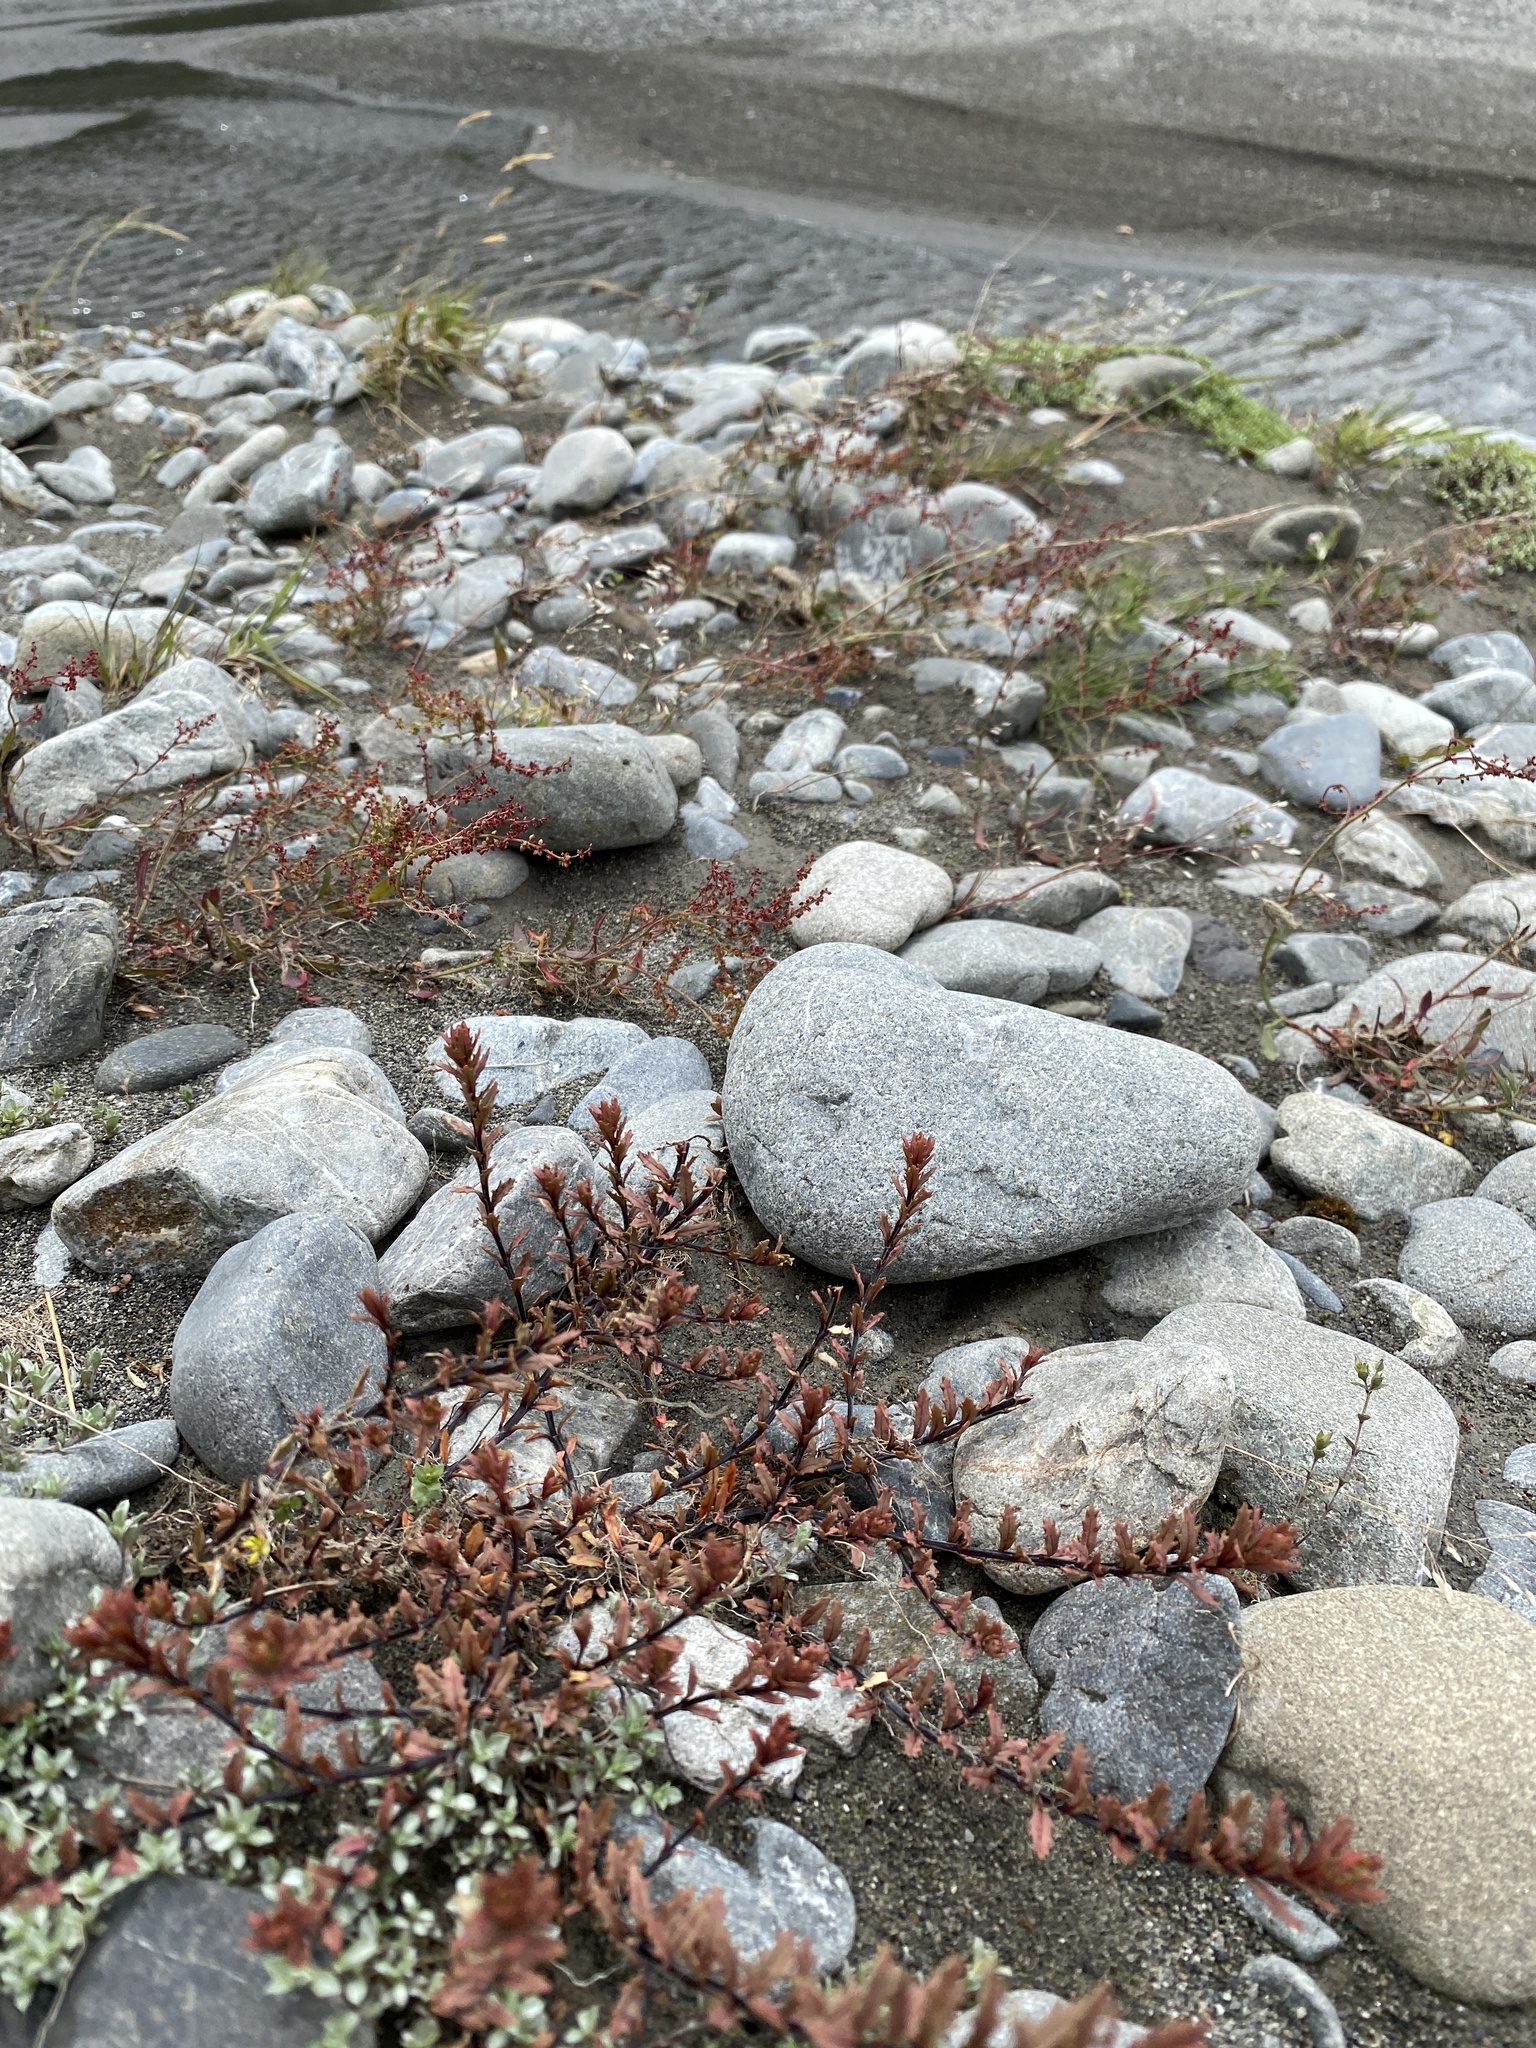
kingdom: Plantae
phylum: Tracheophyta
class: Magnoliopsida
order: Myrtales
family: Onagraceae
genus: Epilobium
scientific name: Epilobium melanocaulon
